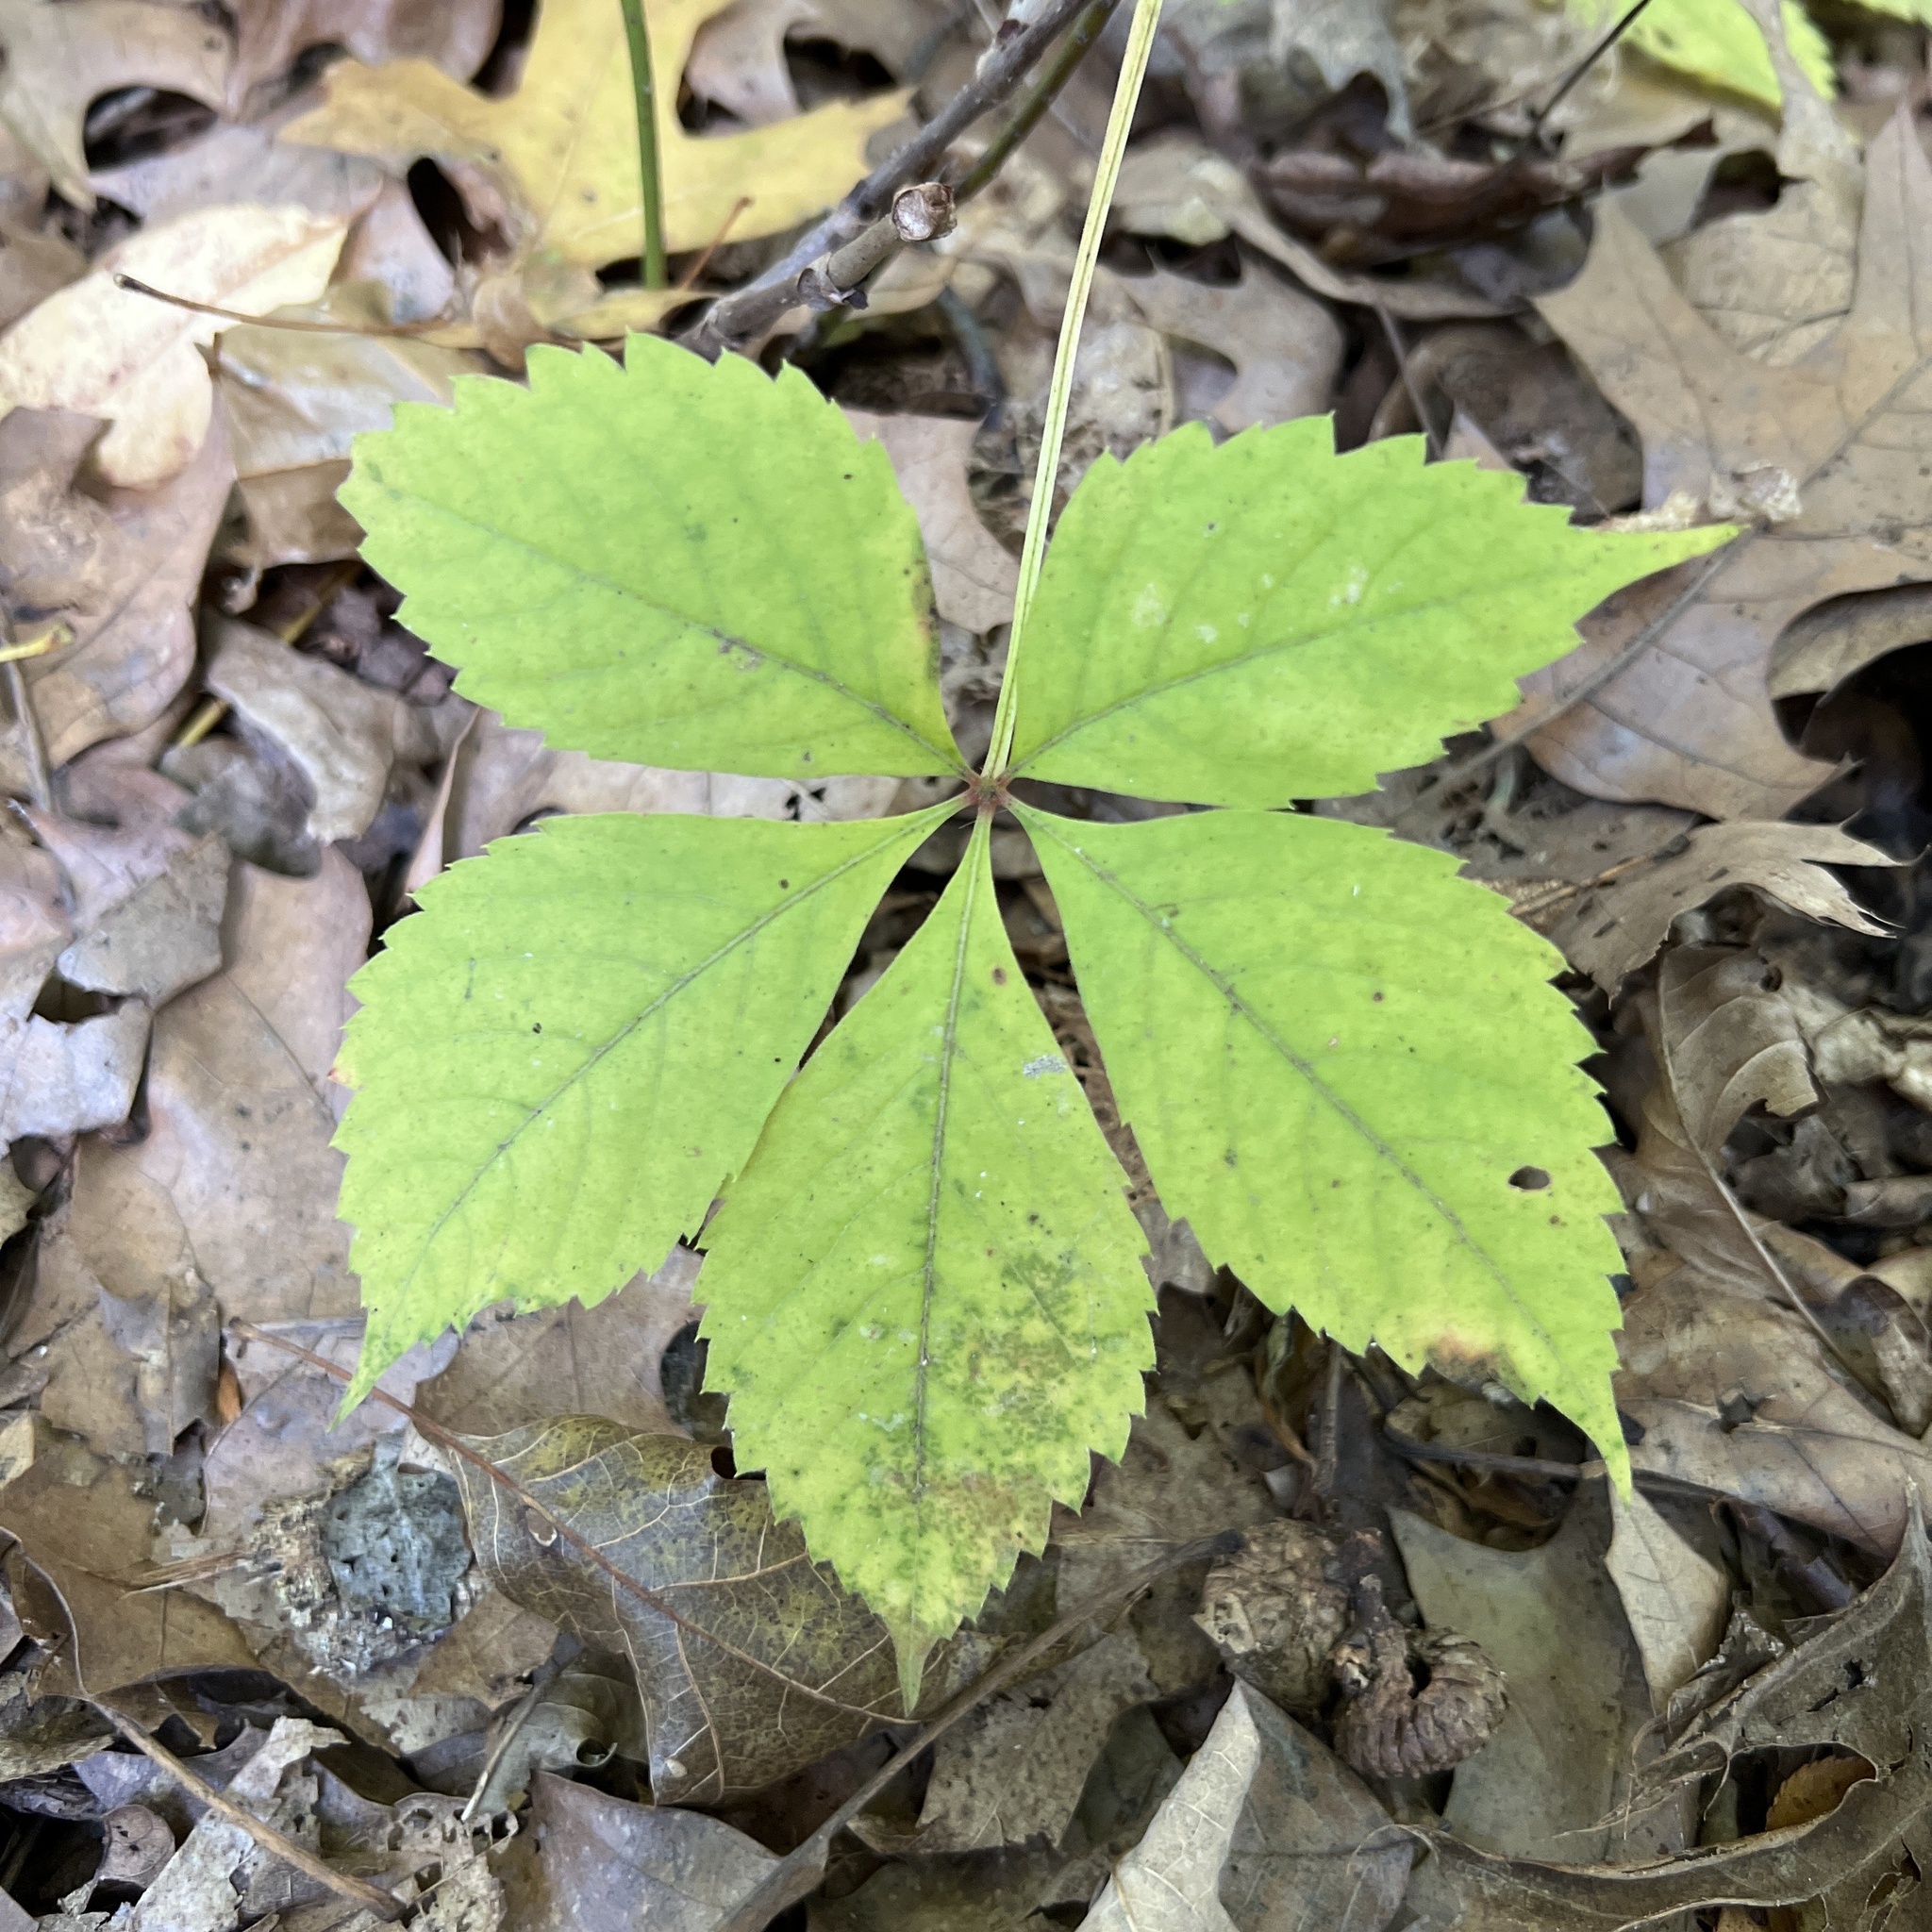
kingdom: Plantae
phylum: Tracheophyta
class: Magnoliopsida
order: Vitales
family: Vitaceae
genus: Parthenocissus
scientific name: Parthenocissus quinquefolia
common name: Virginia-creeper
